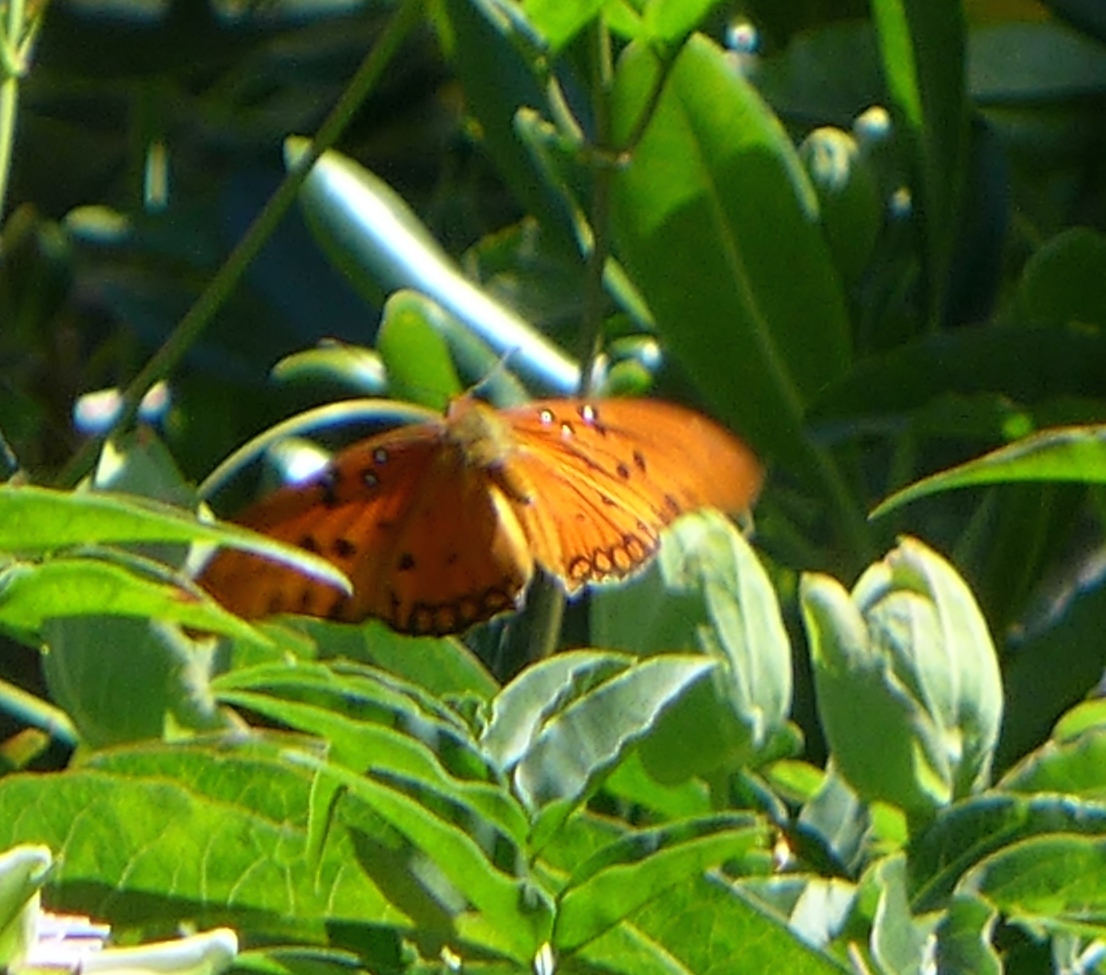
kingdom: Animalia
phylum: Arthropoda
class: Insecta
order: Lepidoptera
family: Nymphalidae
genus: Dione
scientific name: Dione vanillae
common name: Gulf fritillary
